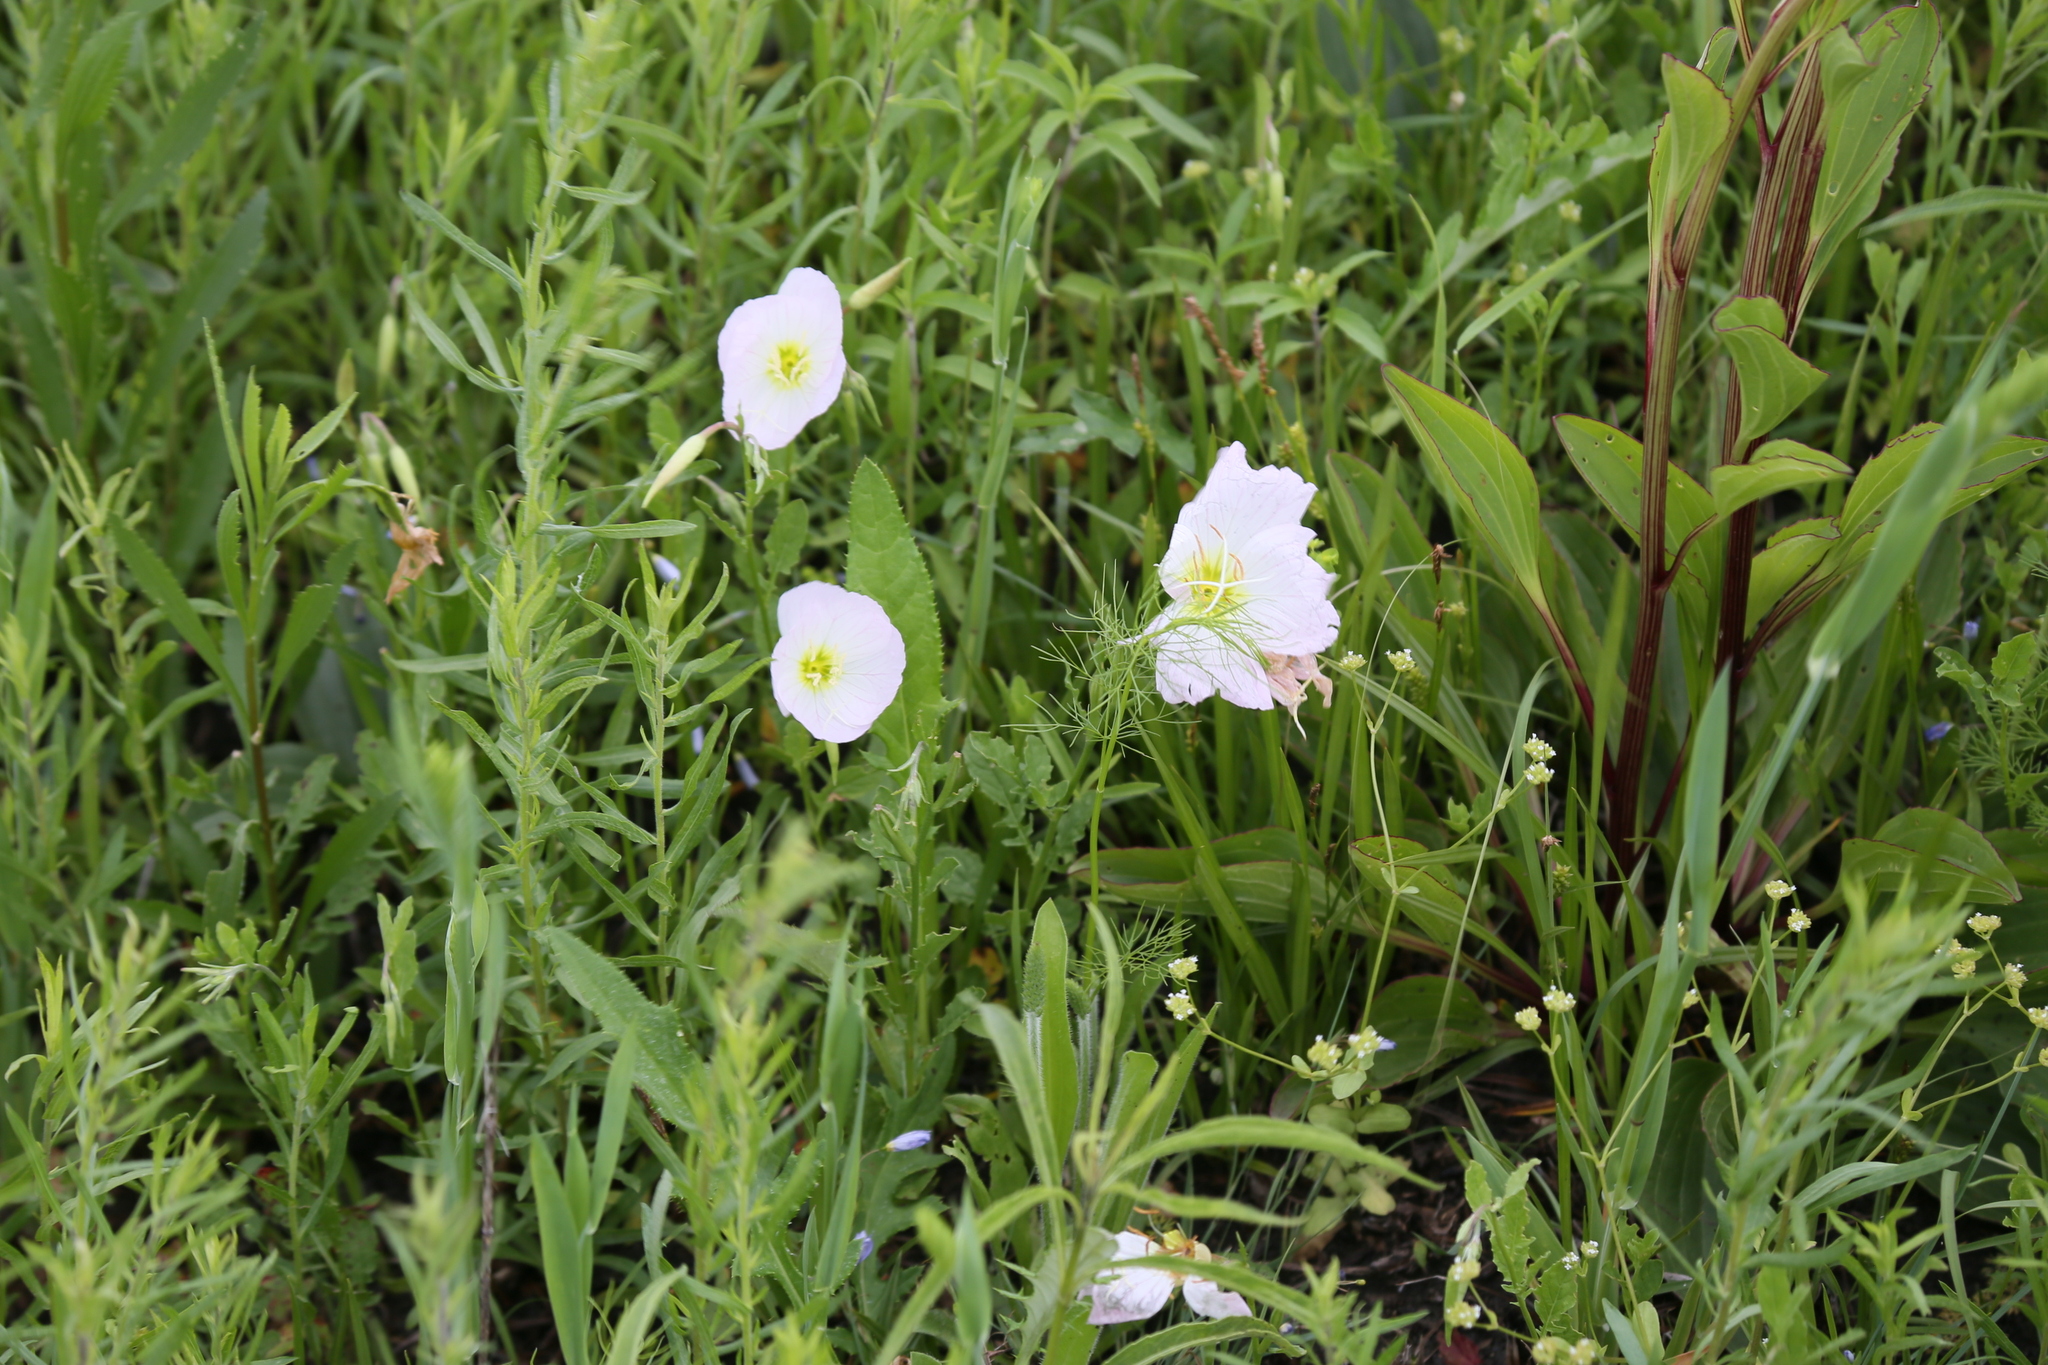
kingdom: Plantae
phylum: Tracheophyta
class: Magnoliopsida
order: Myrtales
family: Onagraceae
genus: Oenothera
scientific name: Oenothera speciosa
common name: White evening-primrose
